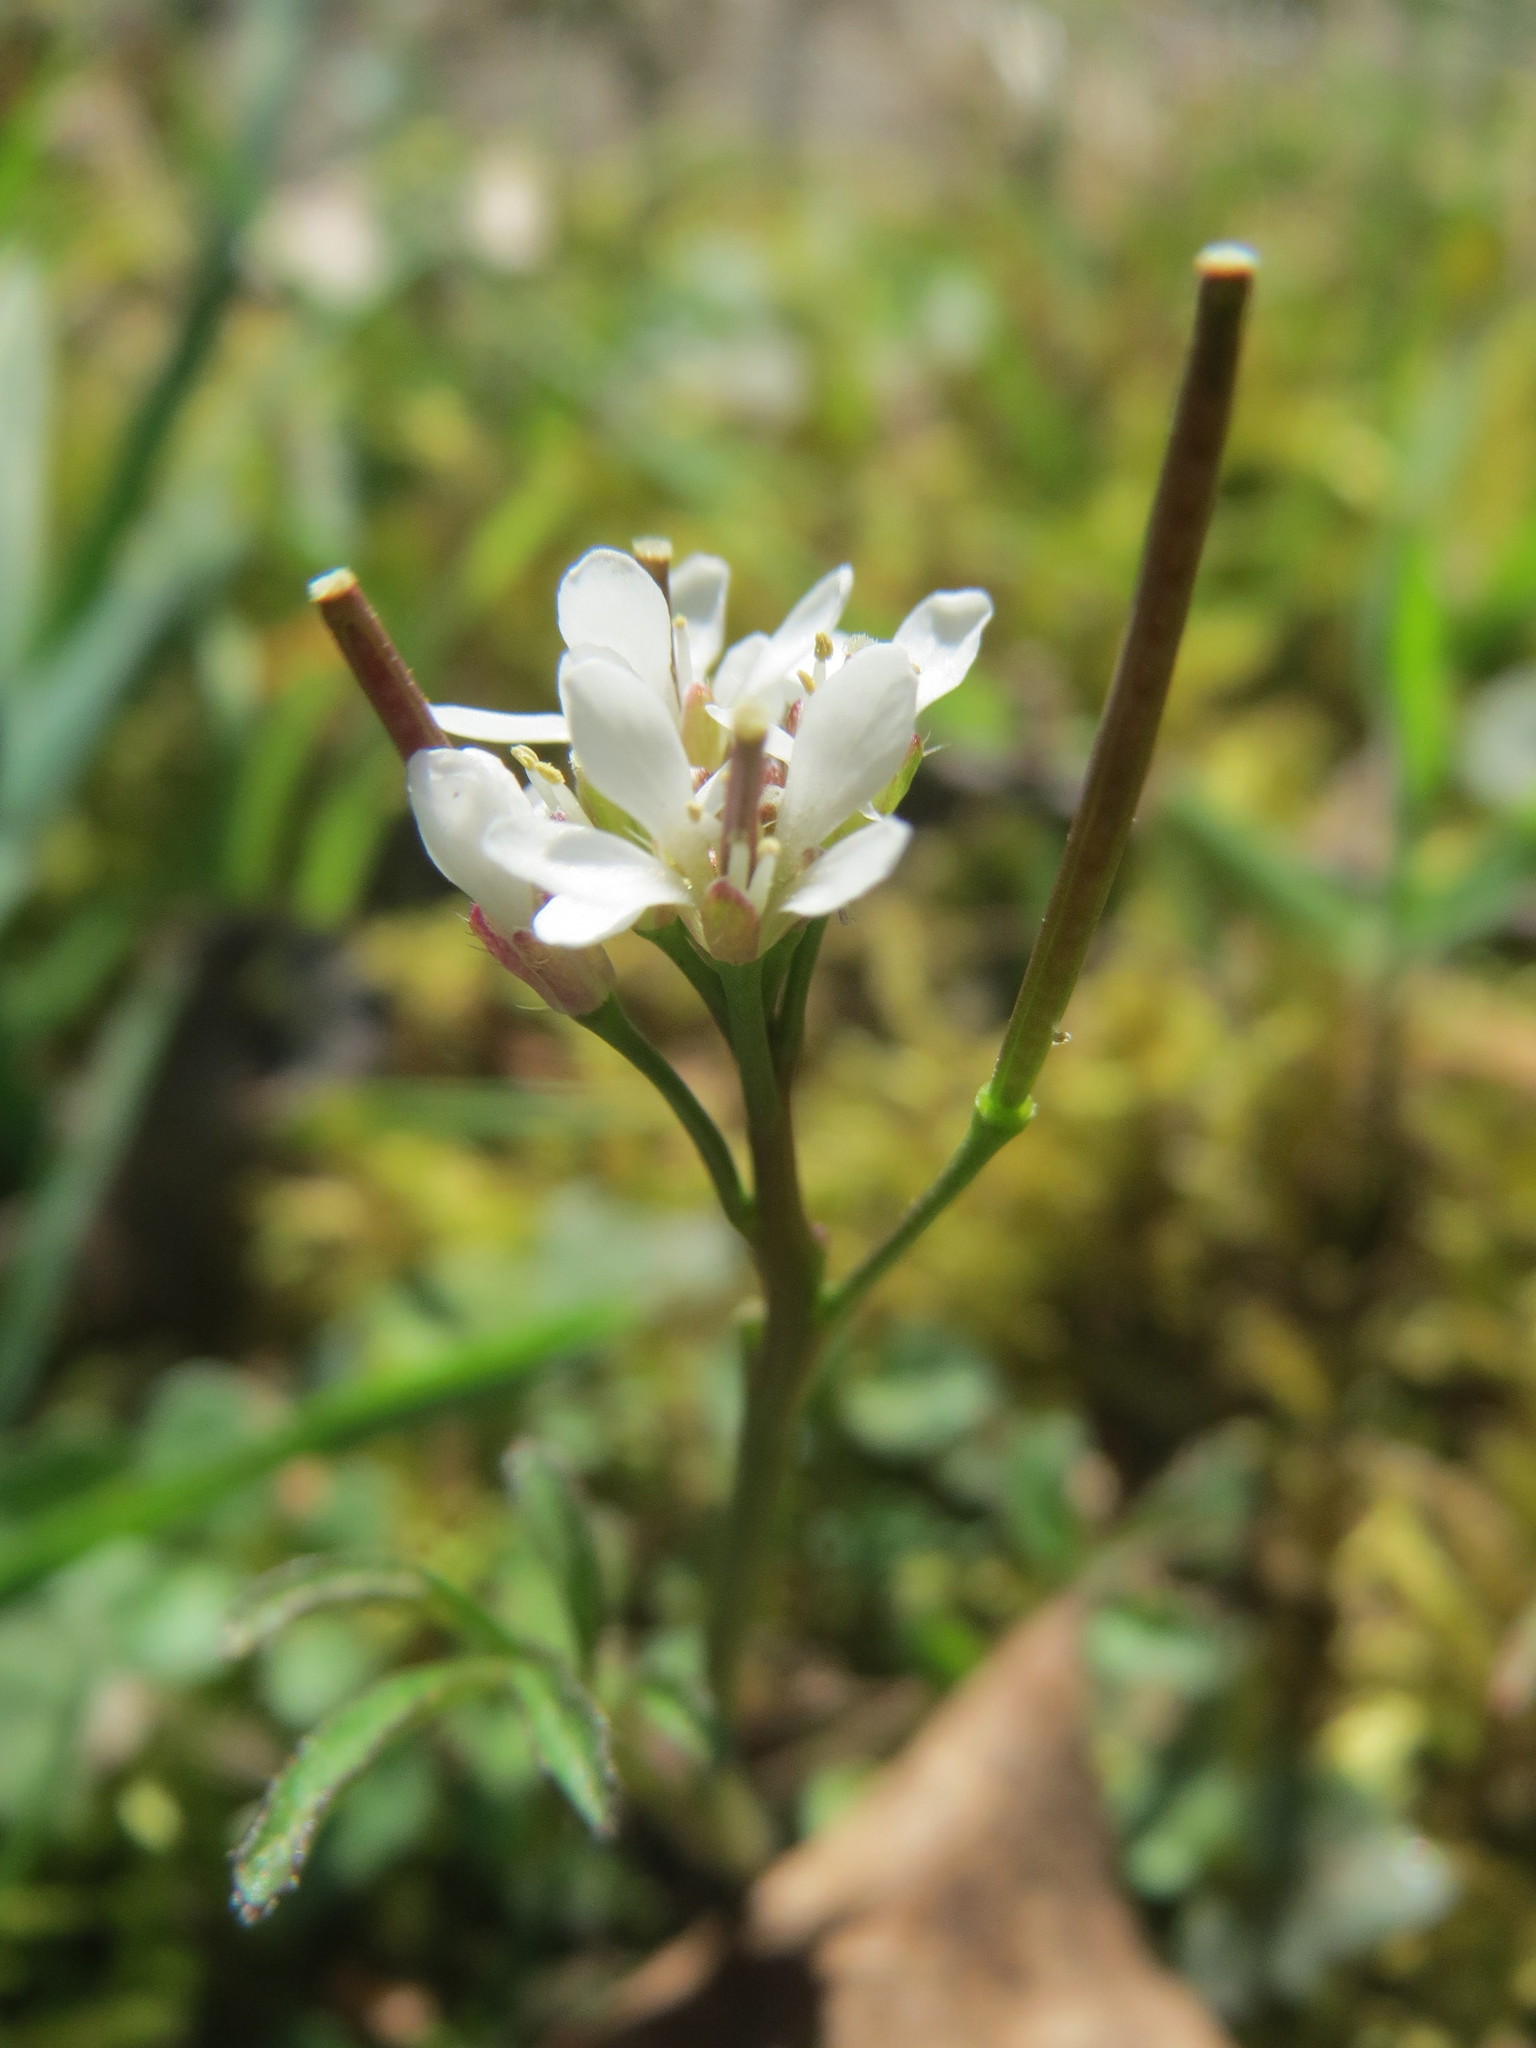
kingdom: Plantae
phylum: Tracheophyta
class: Magnoliopsida
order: Brassicales
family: Brassicaceae
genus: Cardamine
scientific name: Cardamine hirsuta
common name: Hairy bittercress
